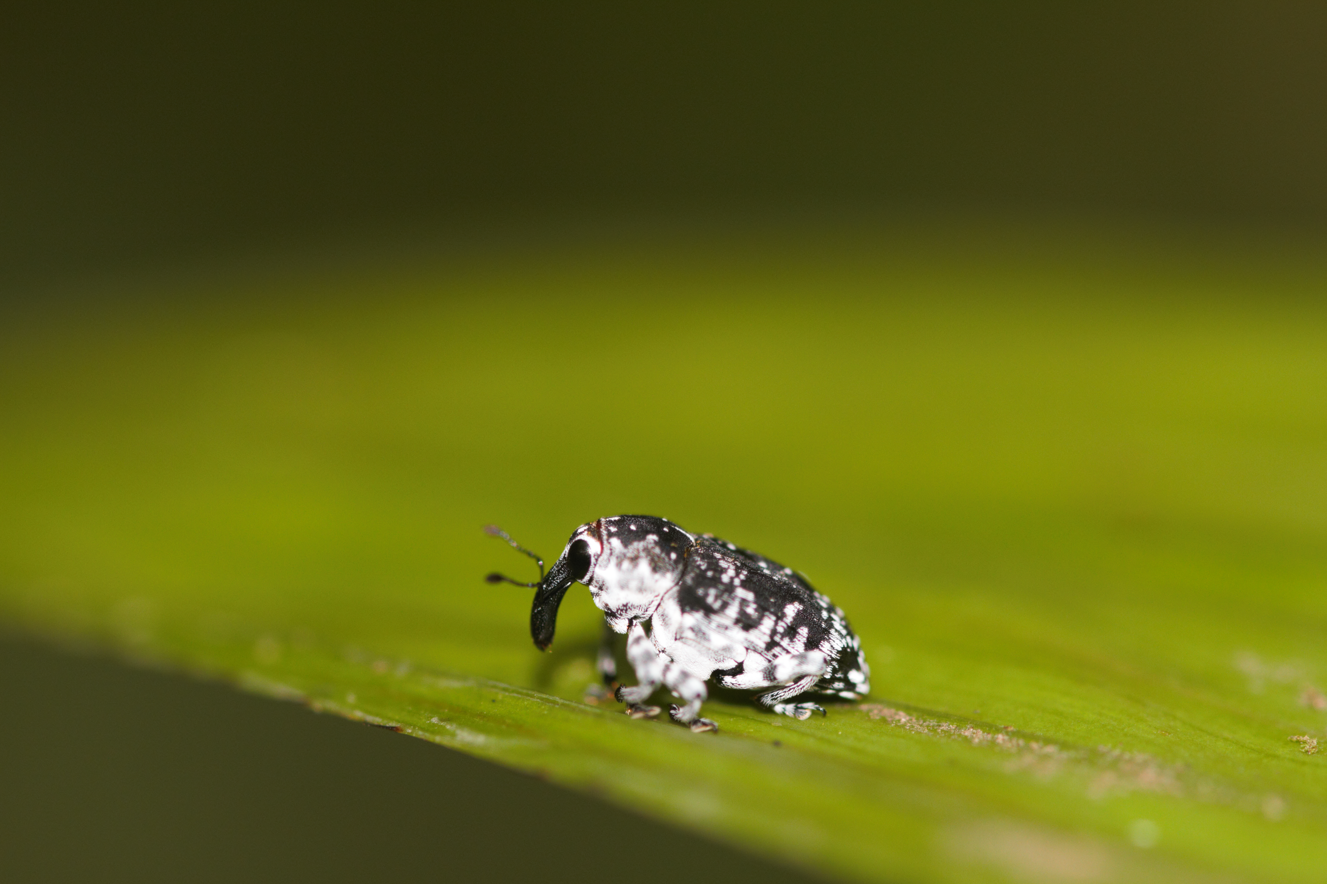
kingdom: Animalia
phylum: Arthropoda
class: Insecta
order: Coleoptera
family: Curculionidae
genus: Peridinetus
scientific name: Peridinetus irroratus
